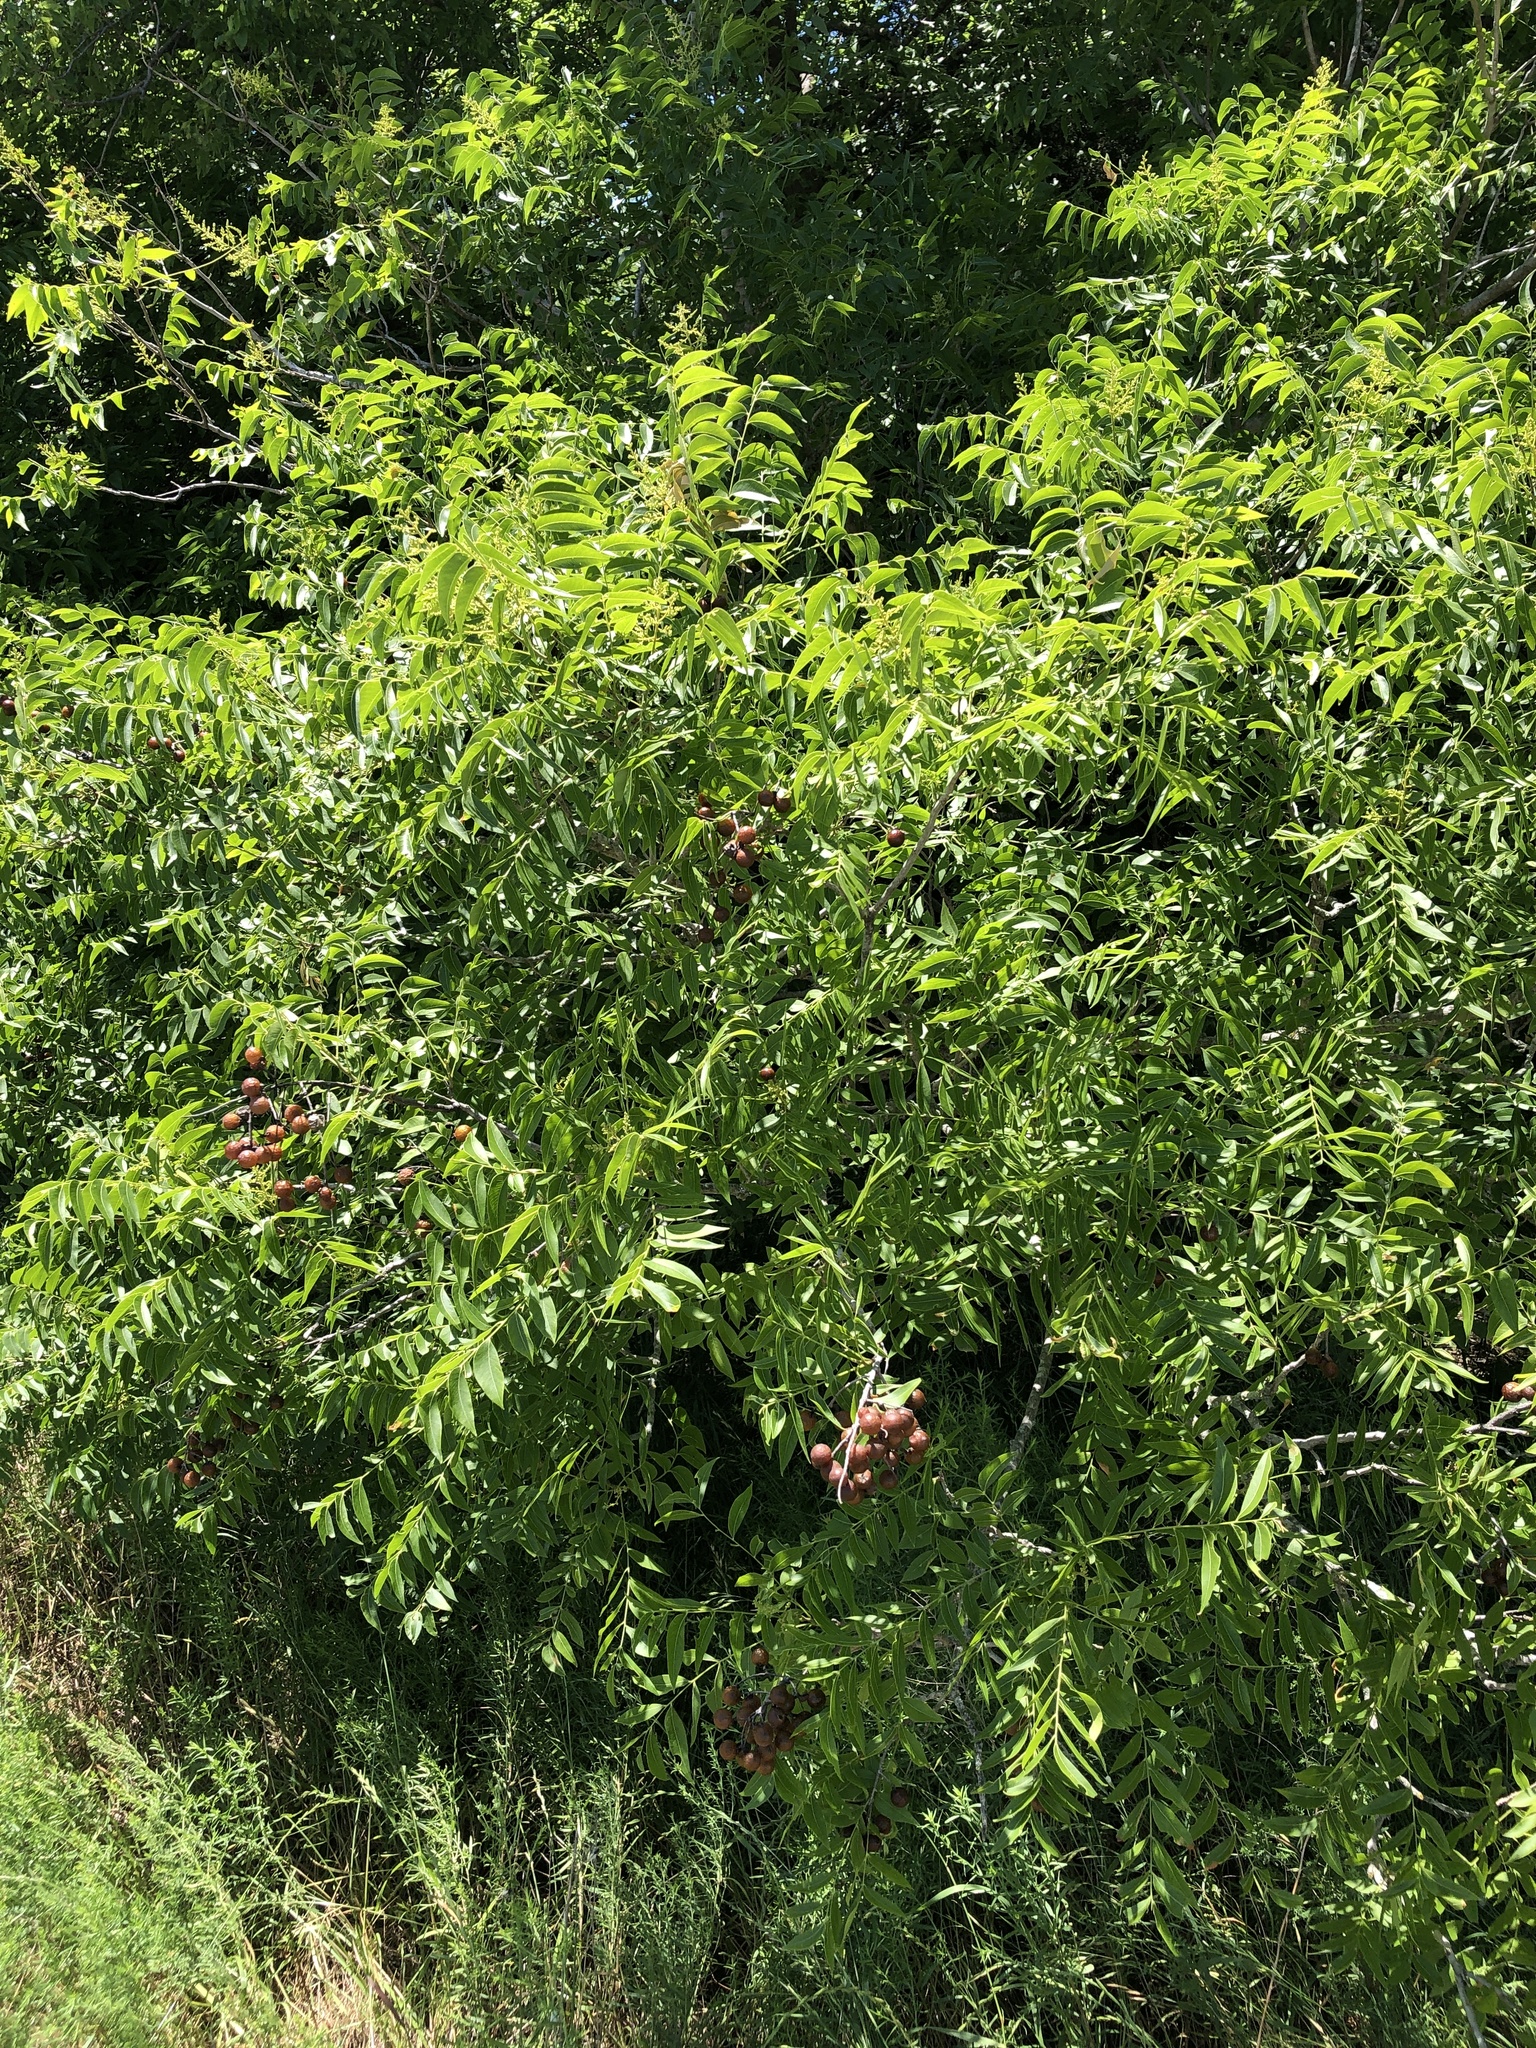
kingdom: Plantae
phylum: Tracheophyta
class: Magnoliopsida
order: Sapindales
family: Sapindaceae
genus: Sapindus
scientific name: Sapindus drummondii
